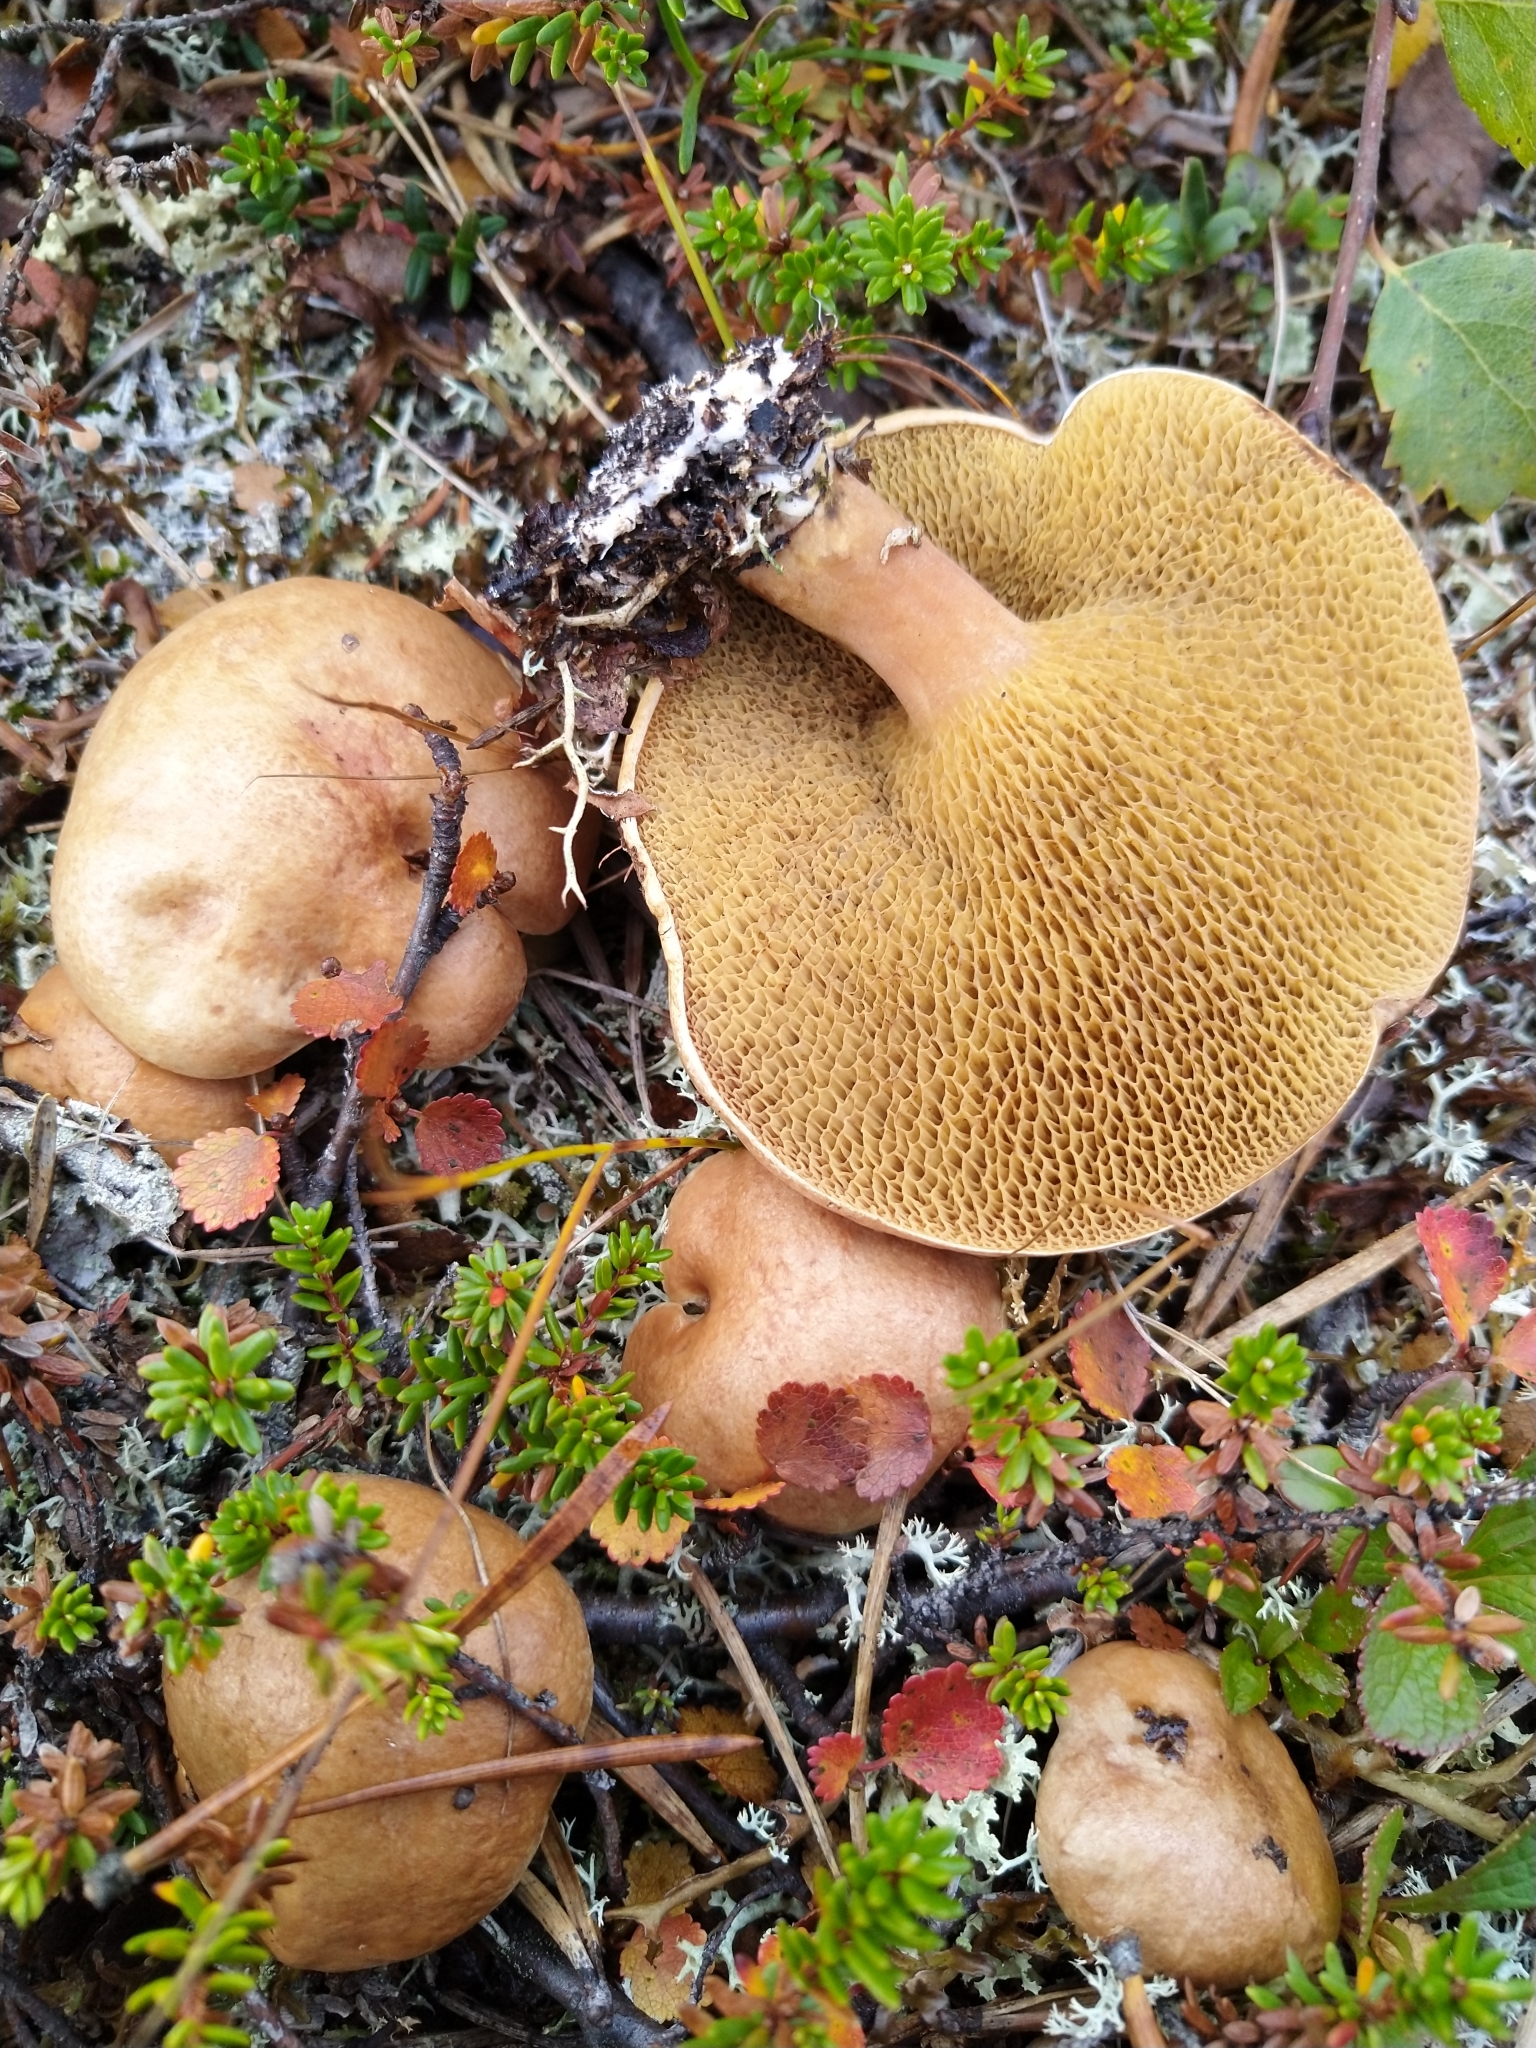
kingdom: Fungi
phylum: Basidiomycota
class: Agaricomycetes
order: Boletales
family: Suillaceae
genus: Suillus
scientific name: Suillus bovinus
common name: Bovine bolete
